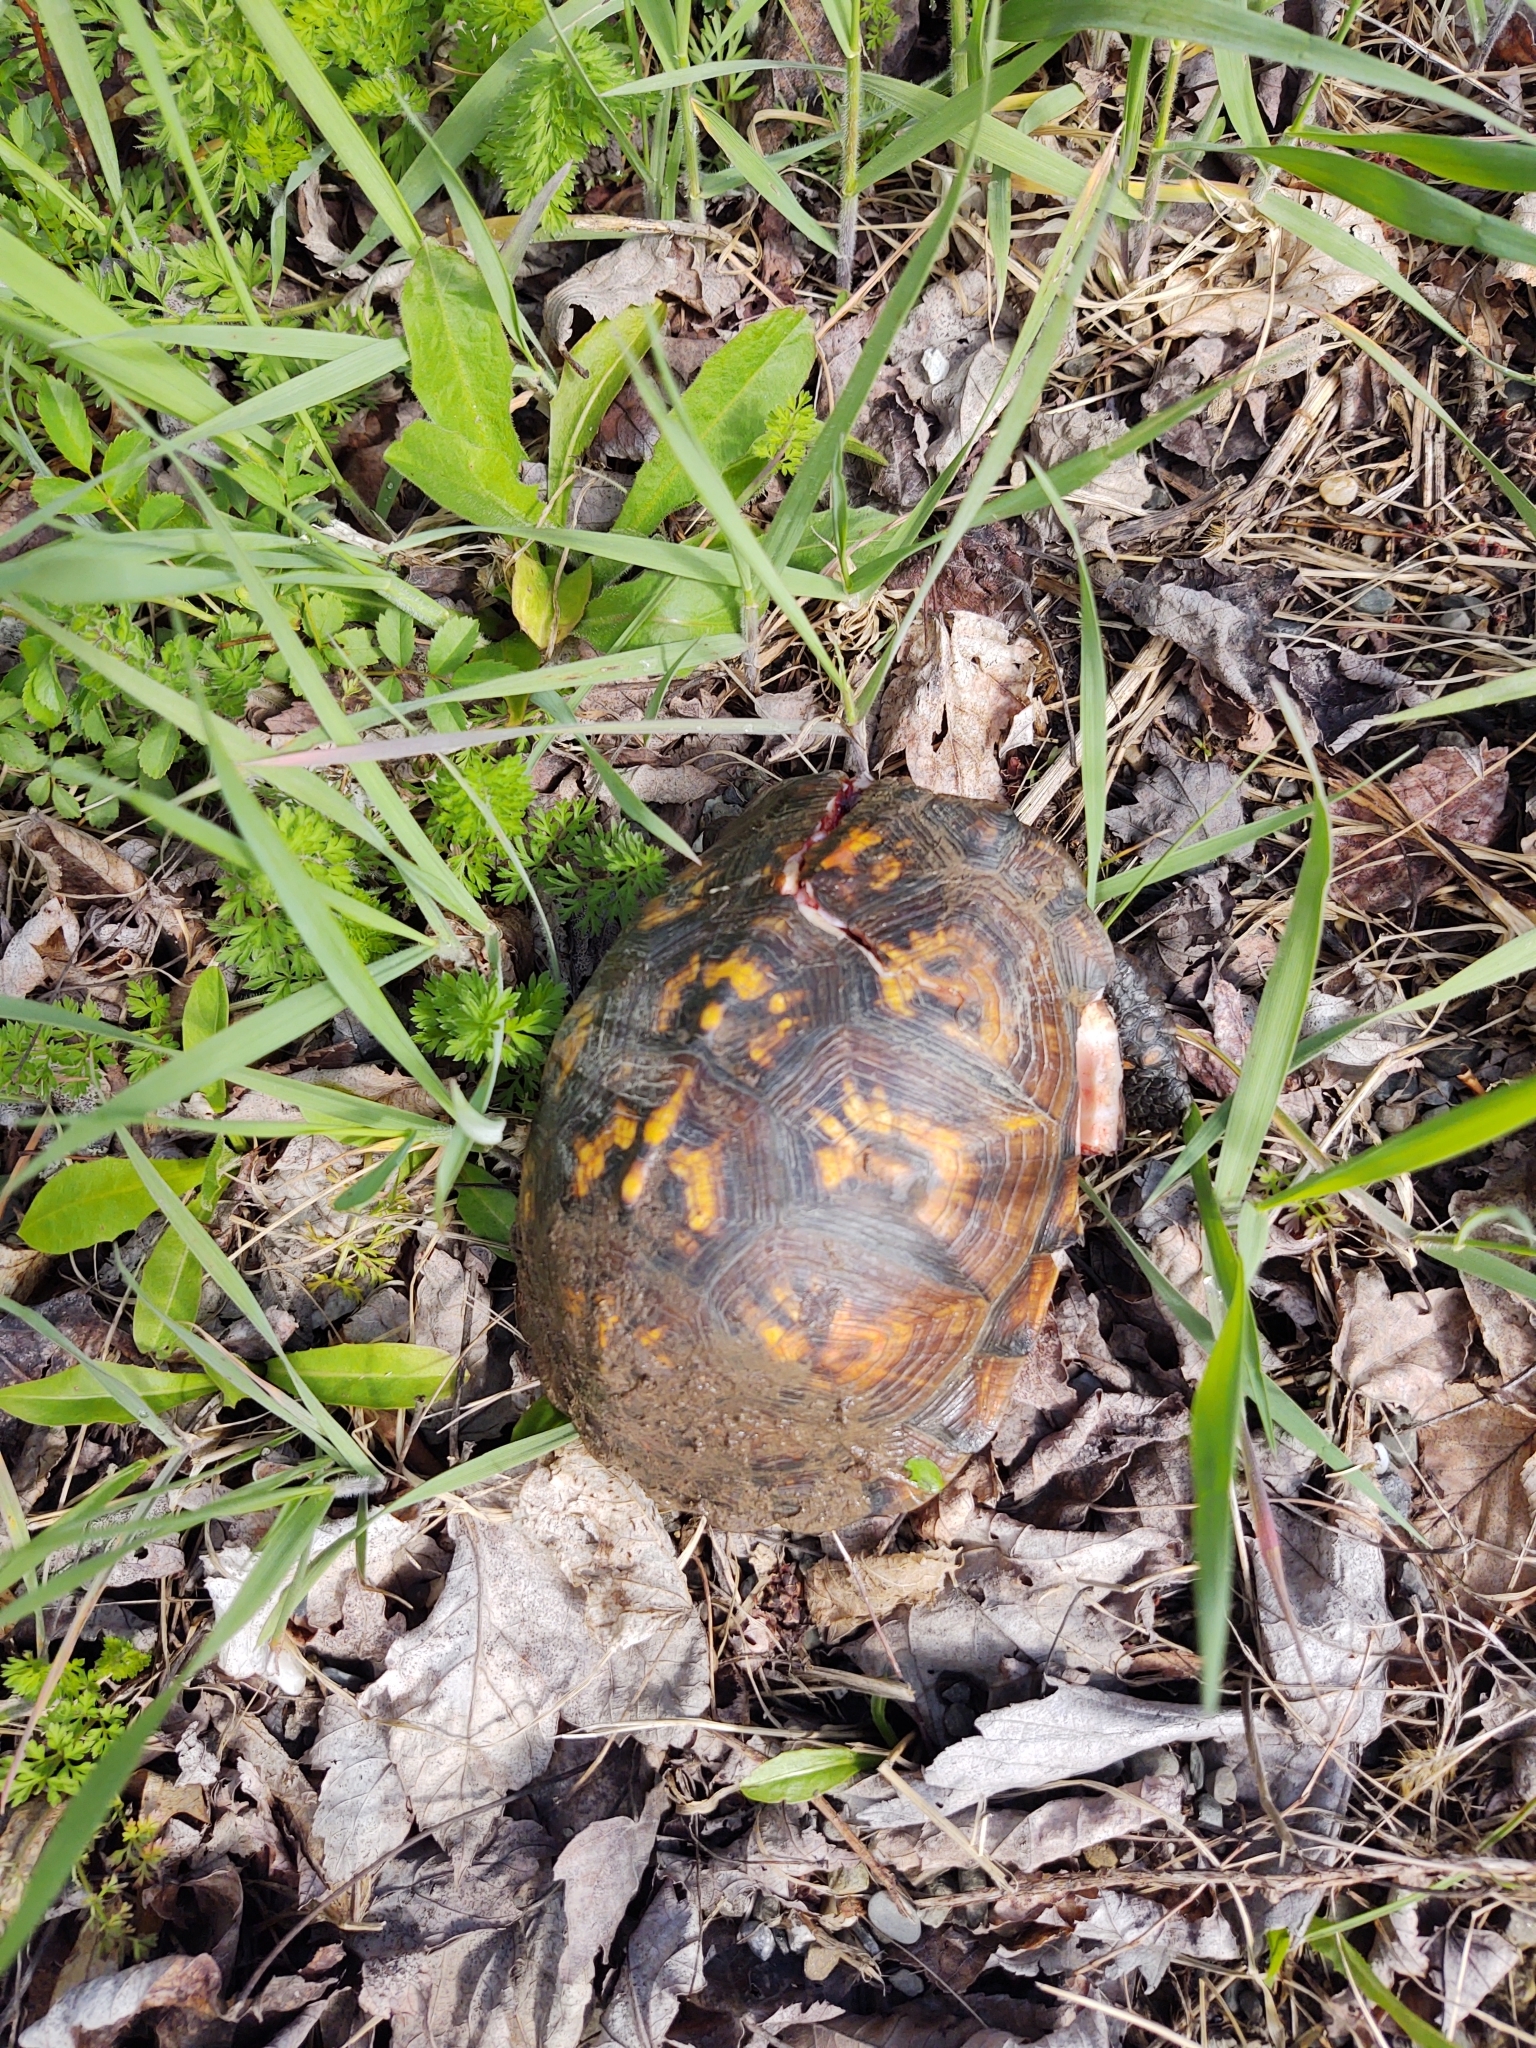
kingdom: Animalia
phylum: Chordata
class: Testudines
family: Emydidae
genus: Terrapene
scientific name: Terrapene carolina
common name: Common box turtle
